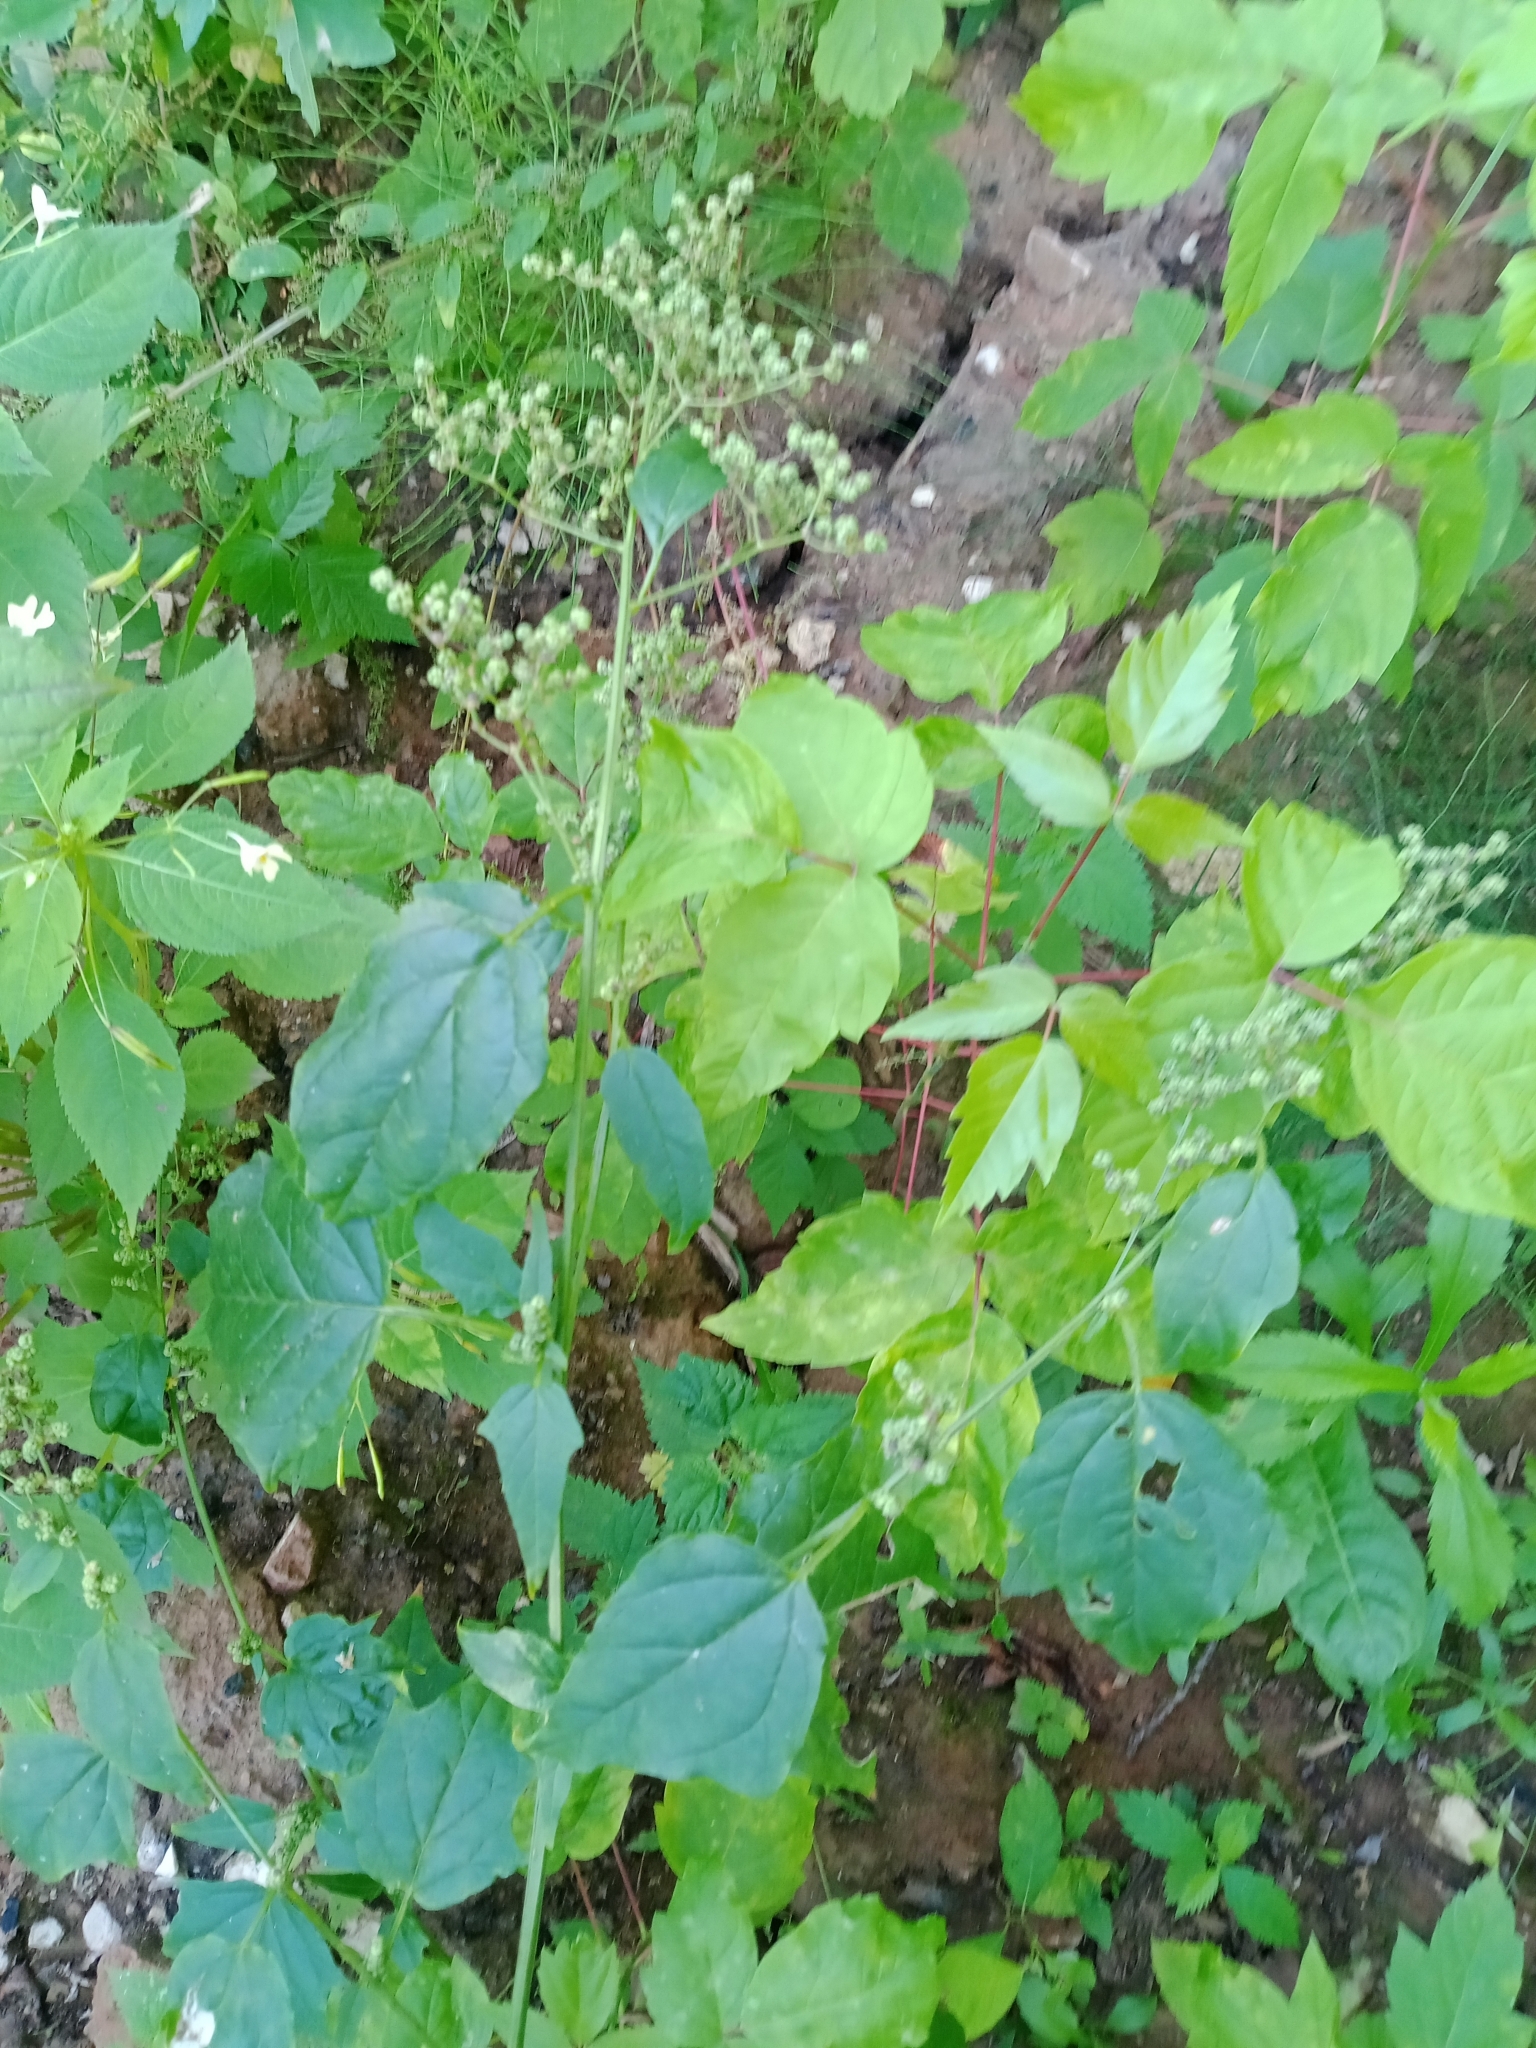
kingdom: Plantae
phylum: Tracheophyta
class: Magnoliopsida
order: Caryophyllales
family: Amaranthaceae
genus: Chenopodiastrum
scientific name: Chenopodiastrum hybridum
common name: Mapleleaf goosefoot
